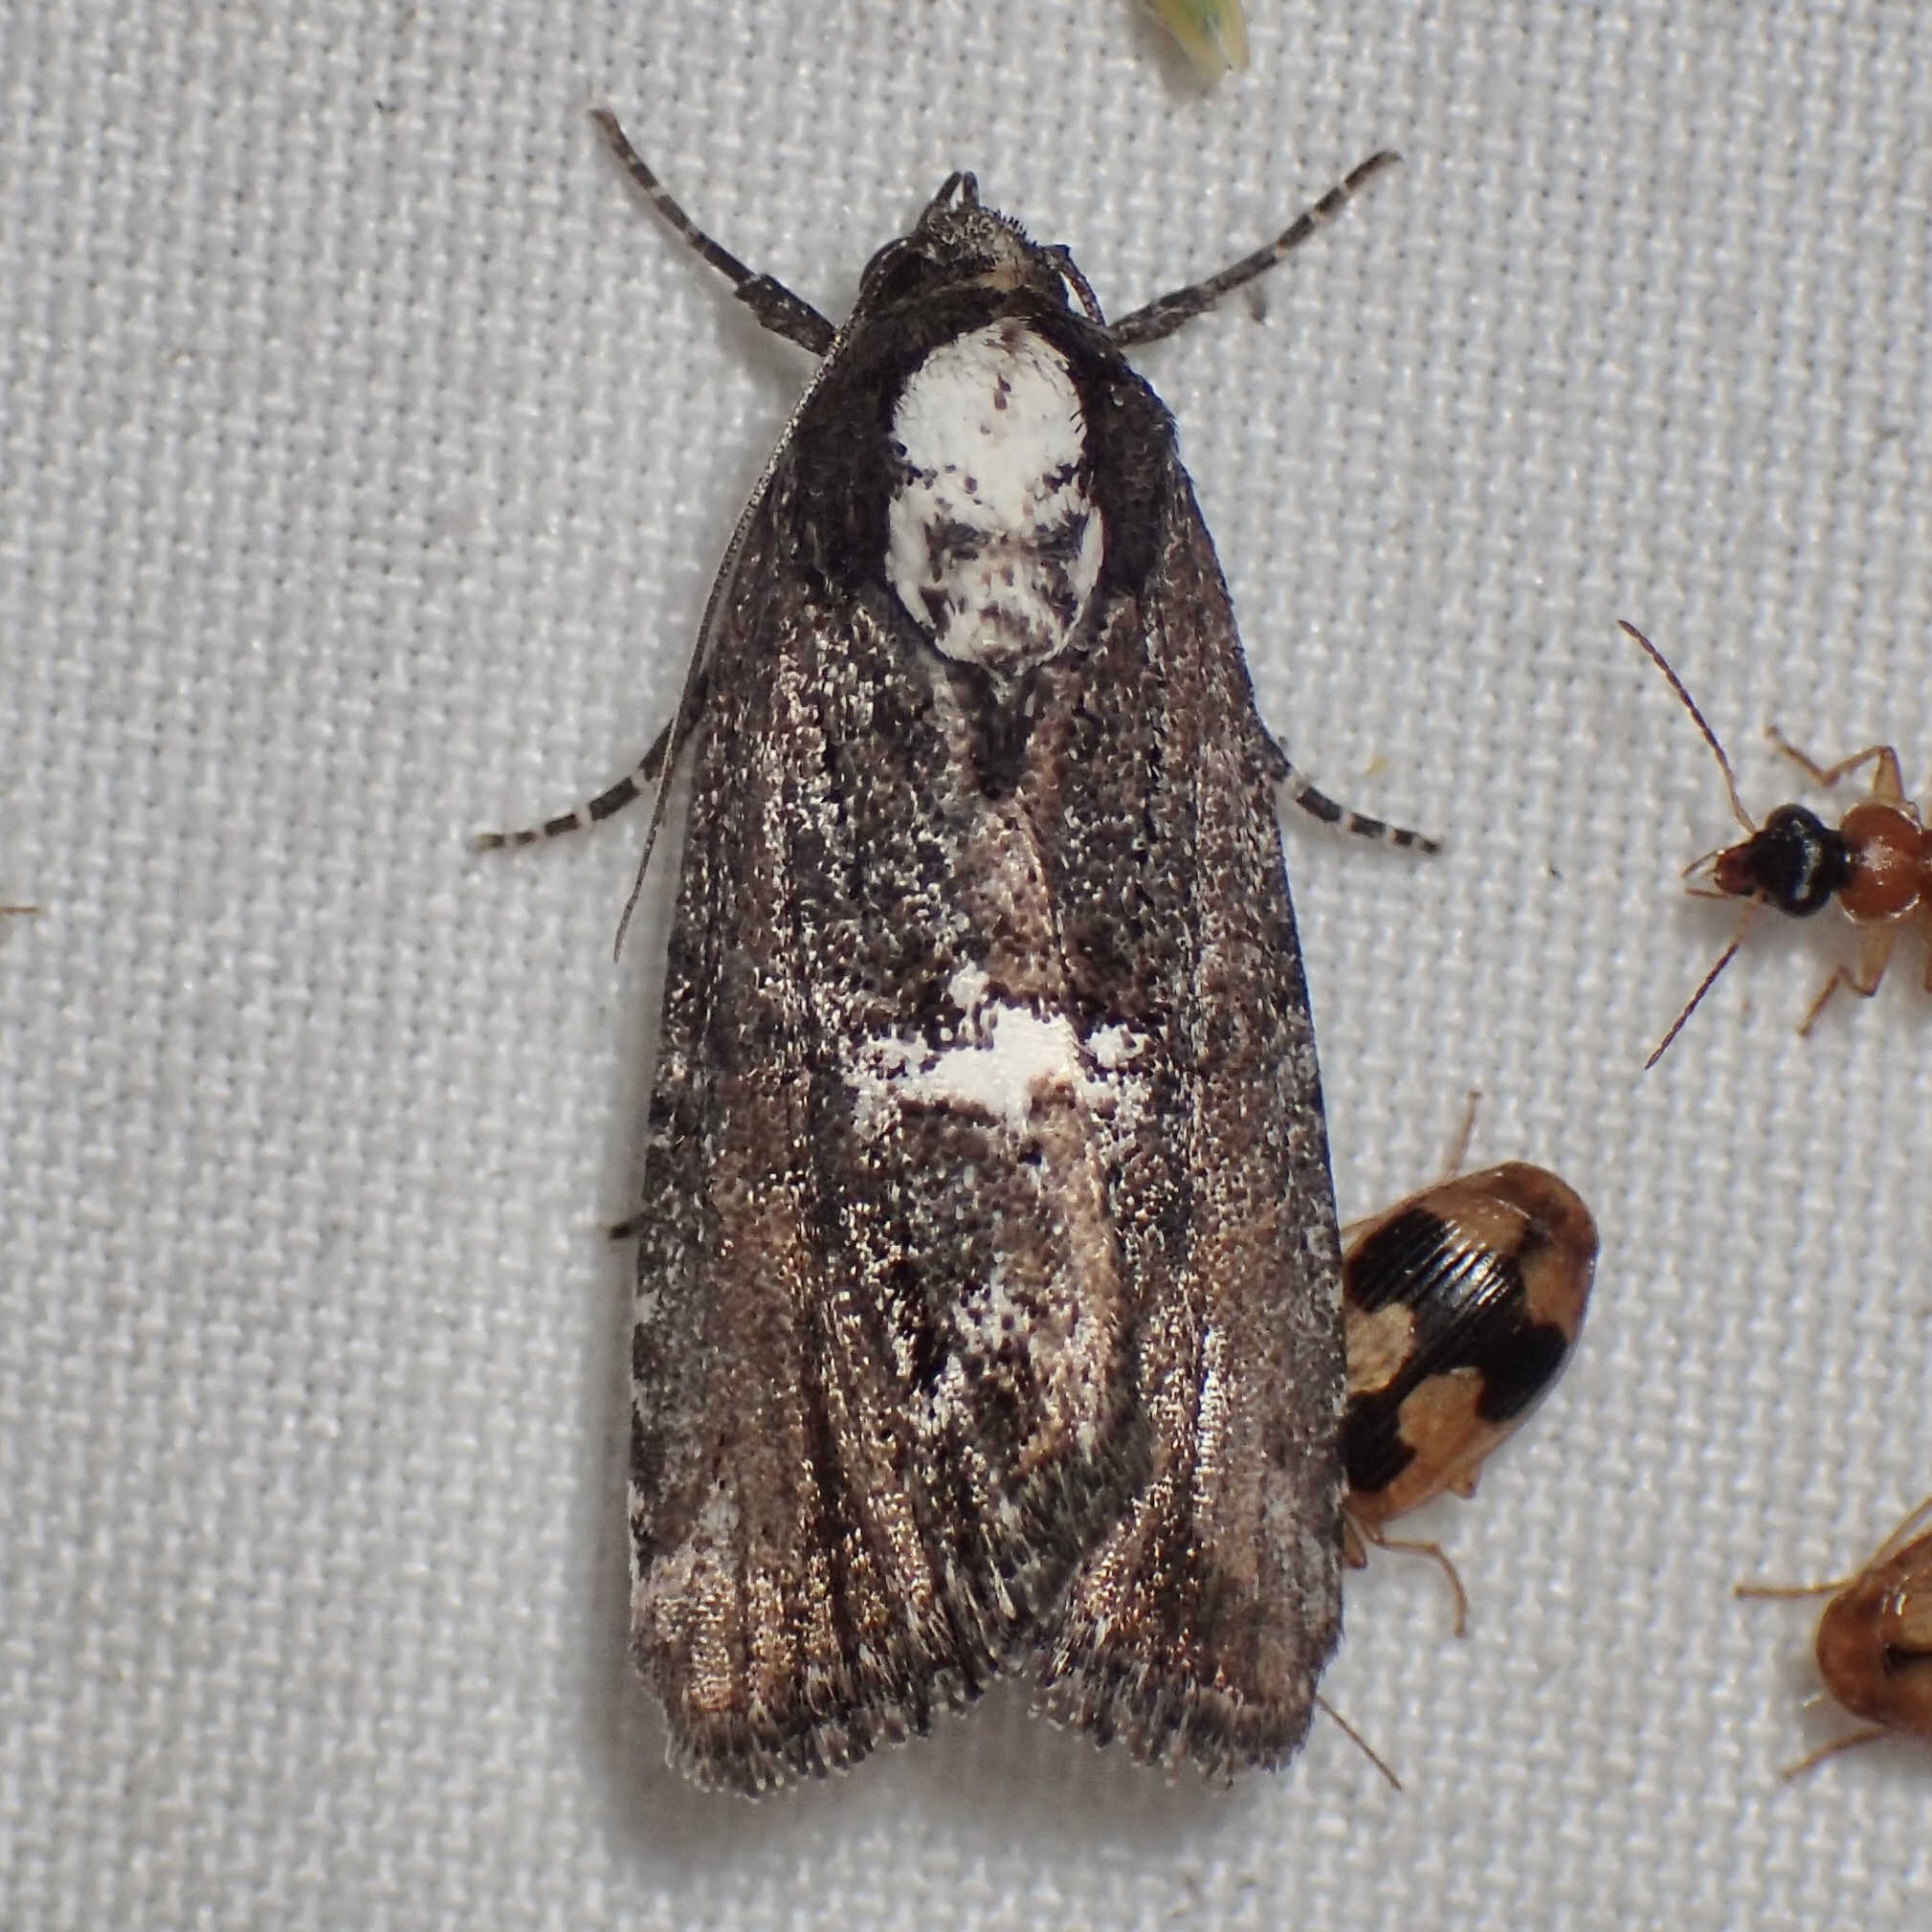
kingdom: Animalia
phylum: Arthropoda
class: Insecta
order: Lepidoptera
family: Noctuidae
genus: Bryolymnia
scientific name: Bryolymnia semifascia
